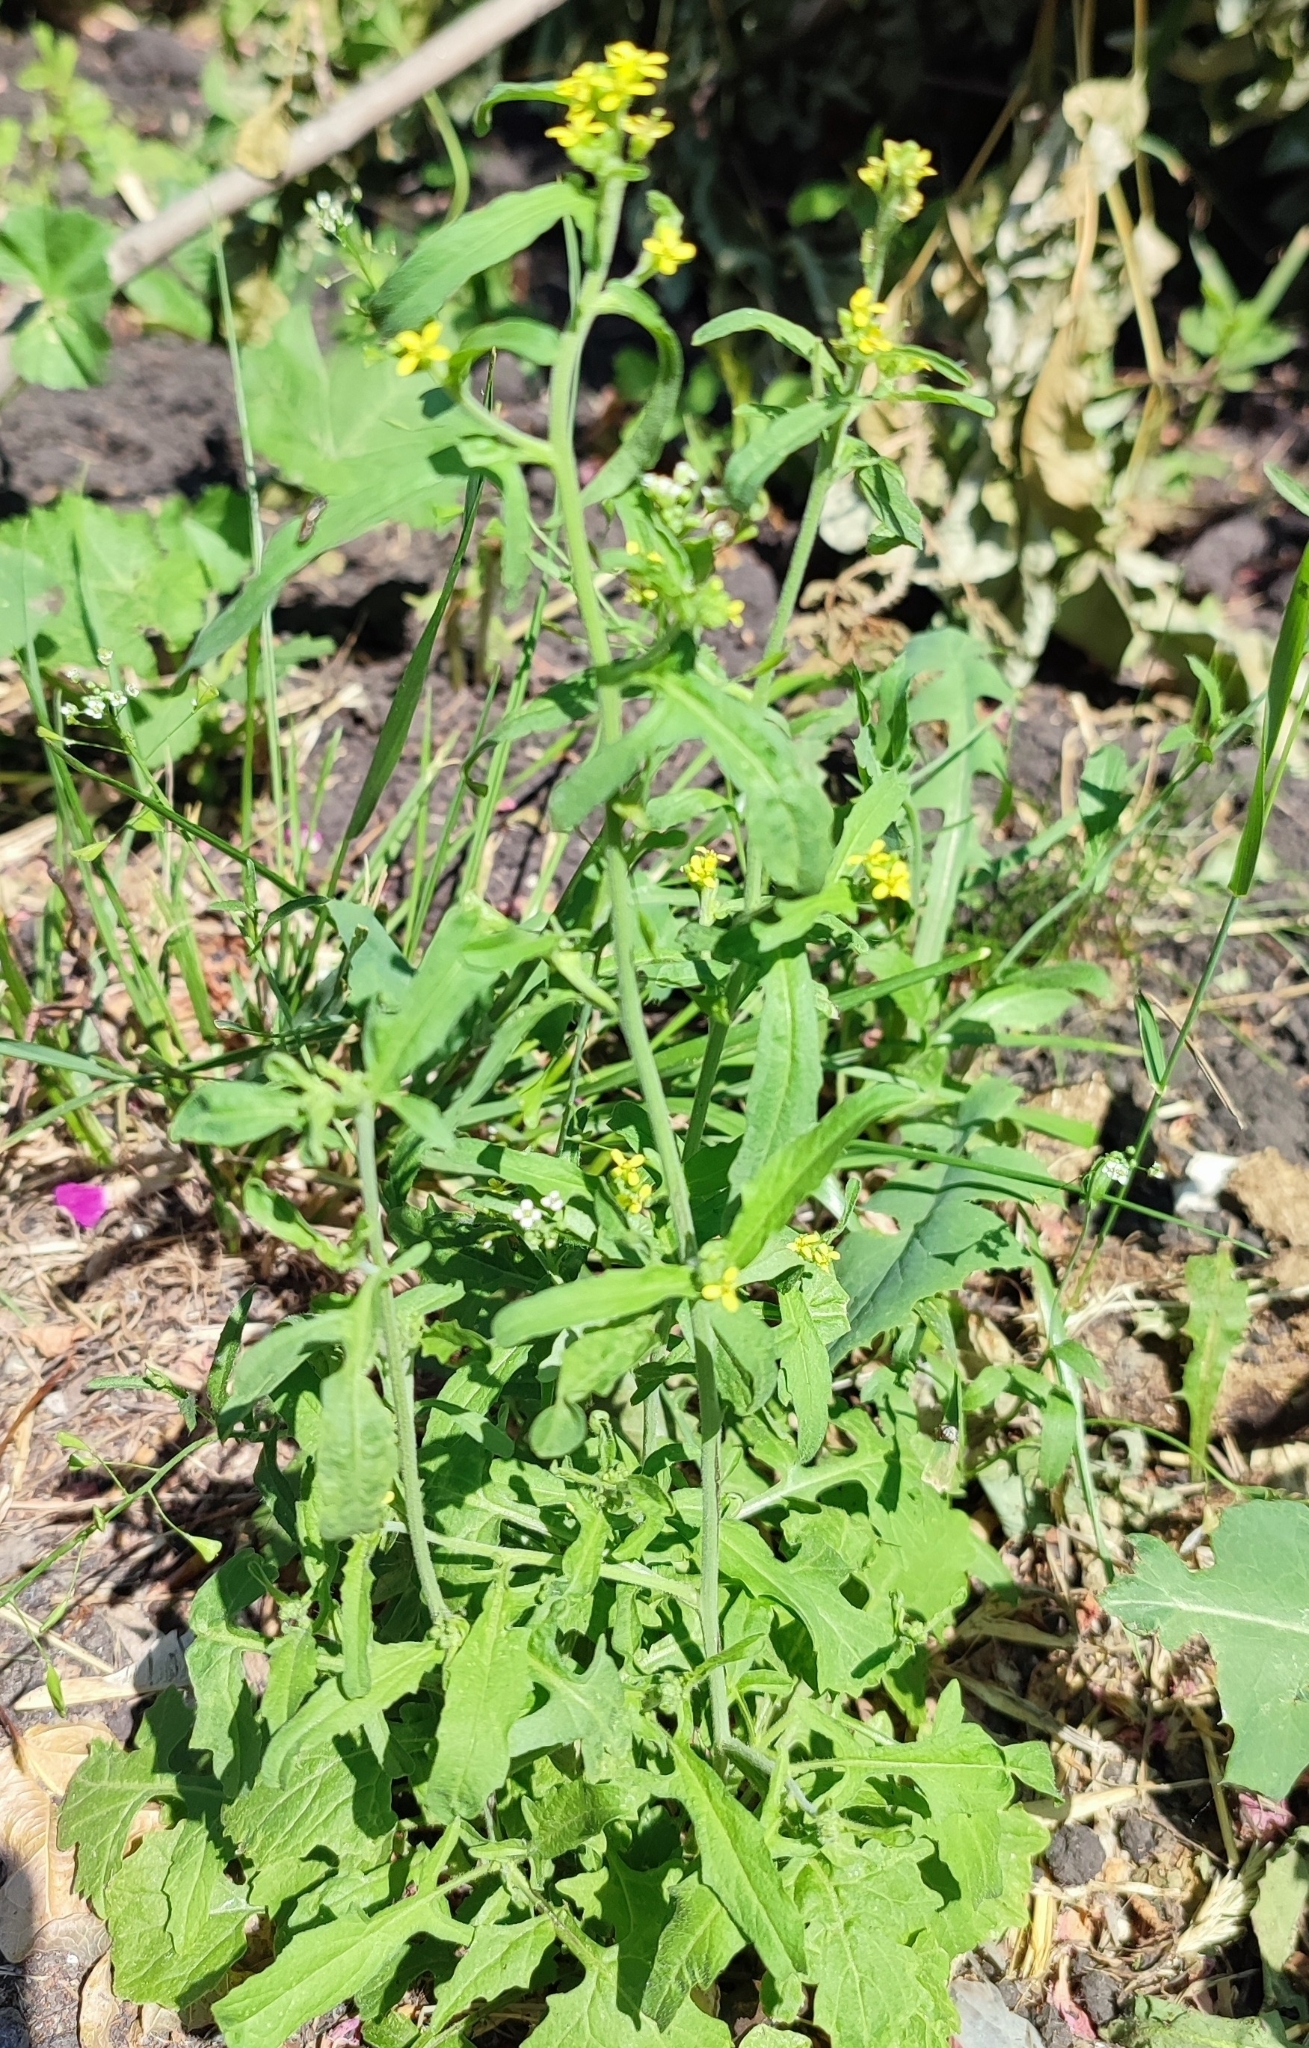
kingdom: Plantae
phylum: Tracheophyta
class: Magnoliopsida
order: Brassicales
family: Brassicaceae
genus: Sisymbrium
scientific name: Sisymbrium officinale
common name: Hedge mustard
